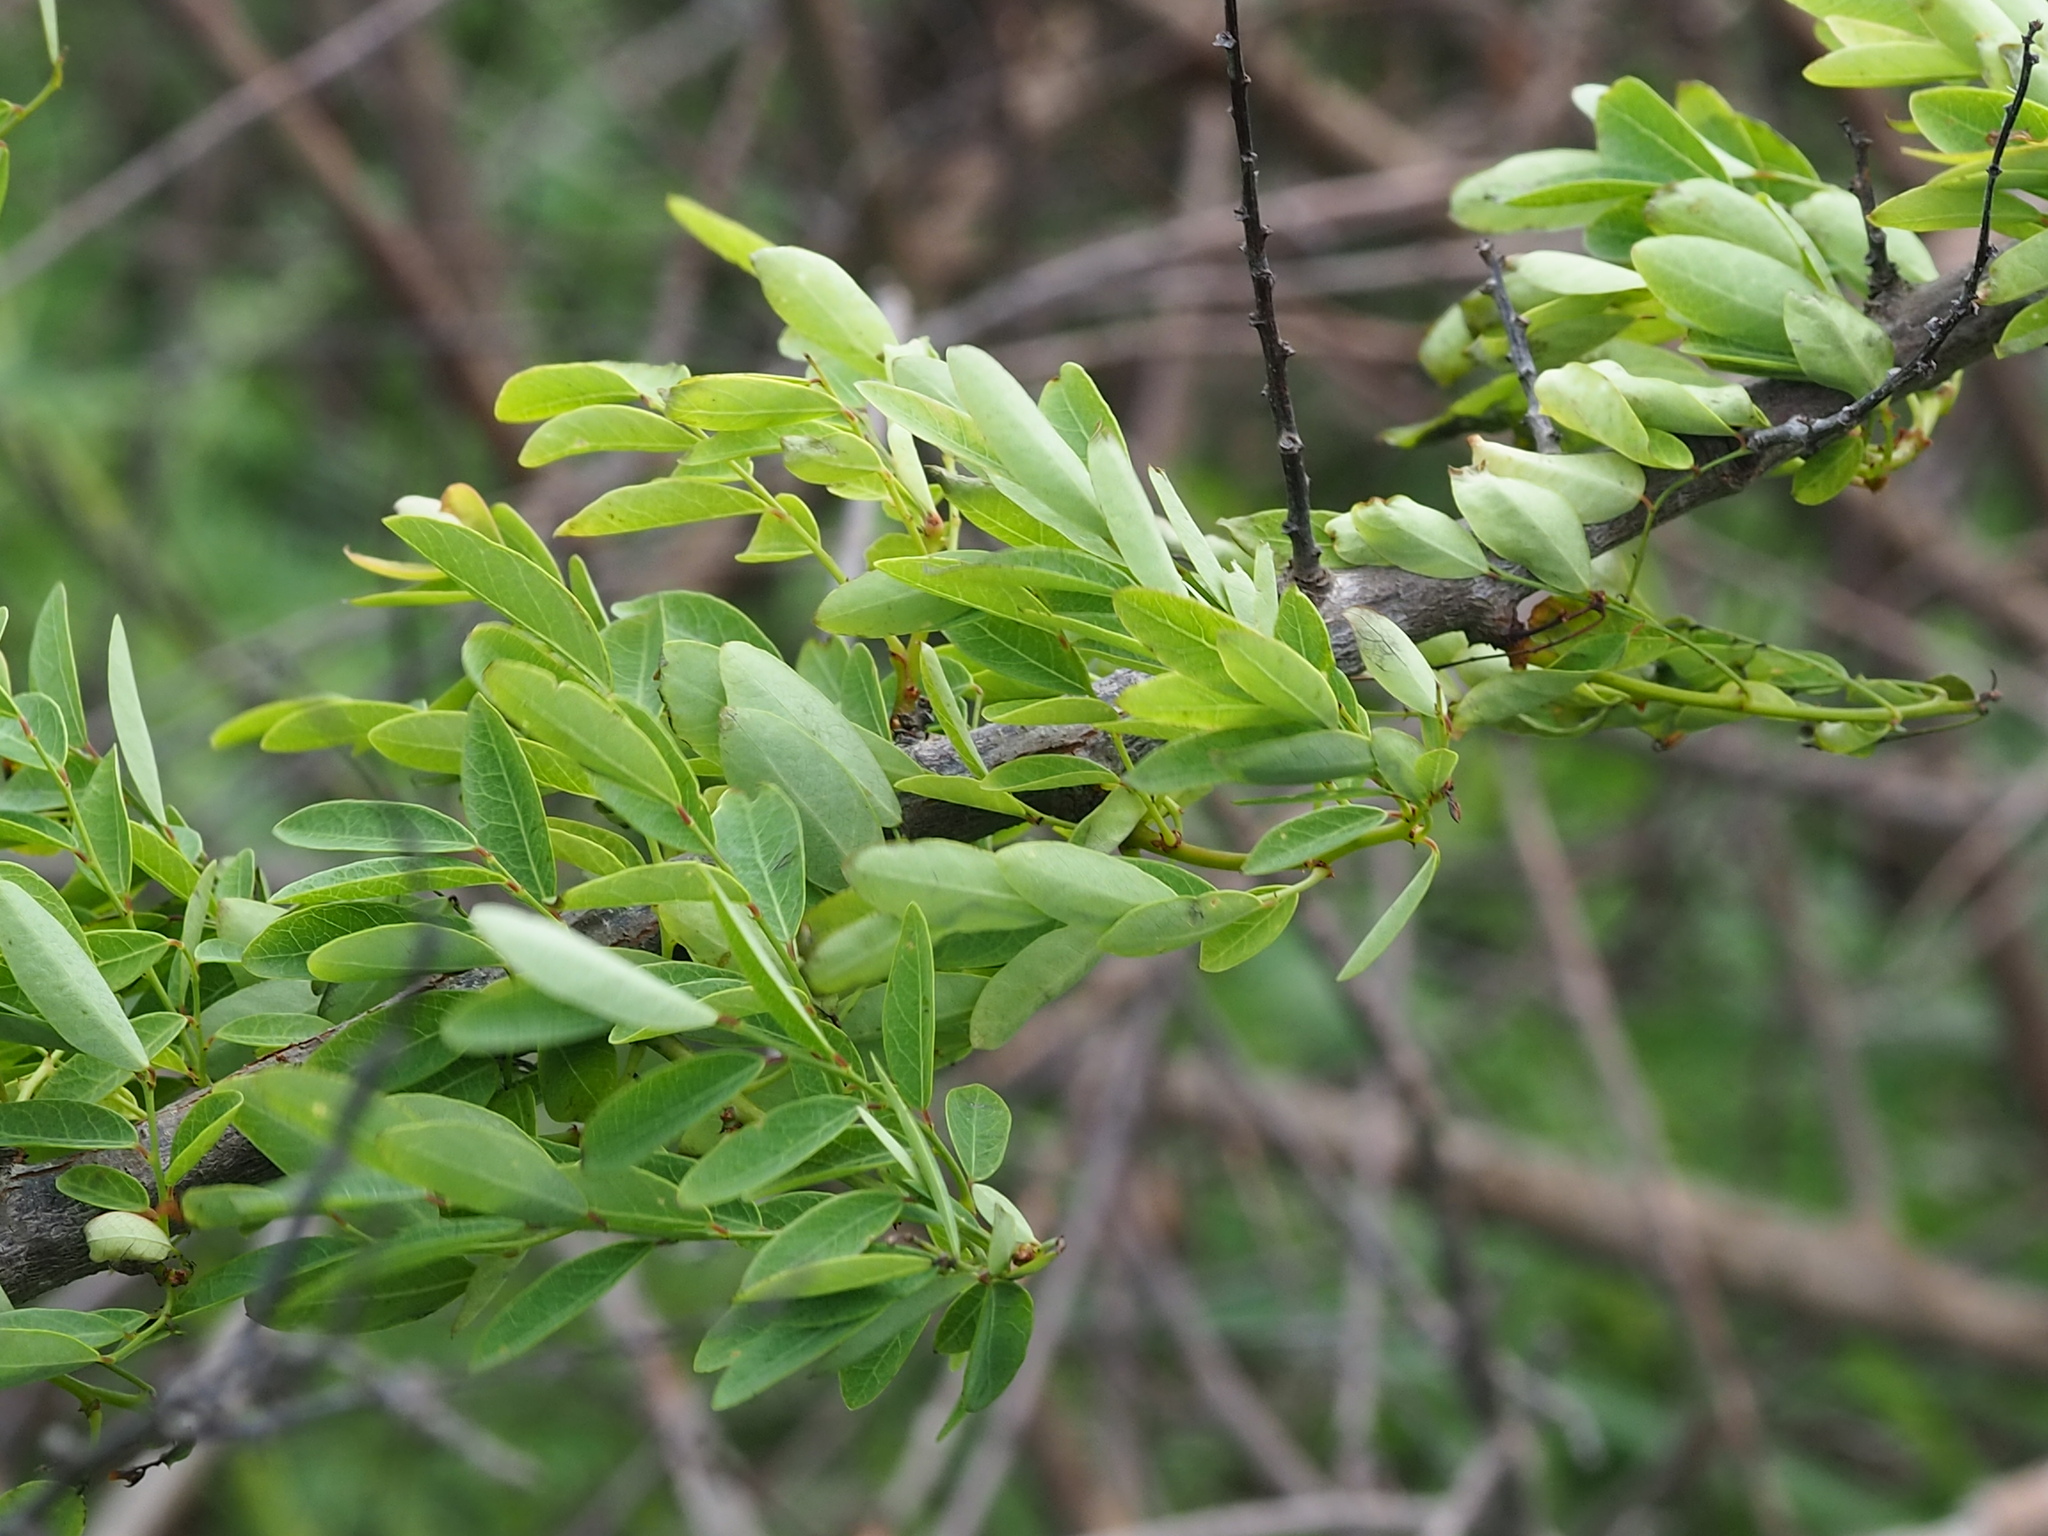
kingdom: Plantae
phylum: Tracheophyta
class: Magnoliopsida
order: Malpighiales
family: Phyllanthaceae
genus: Phyllanthus
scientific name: Phyllanthus reticulatus
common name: Potato bush
